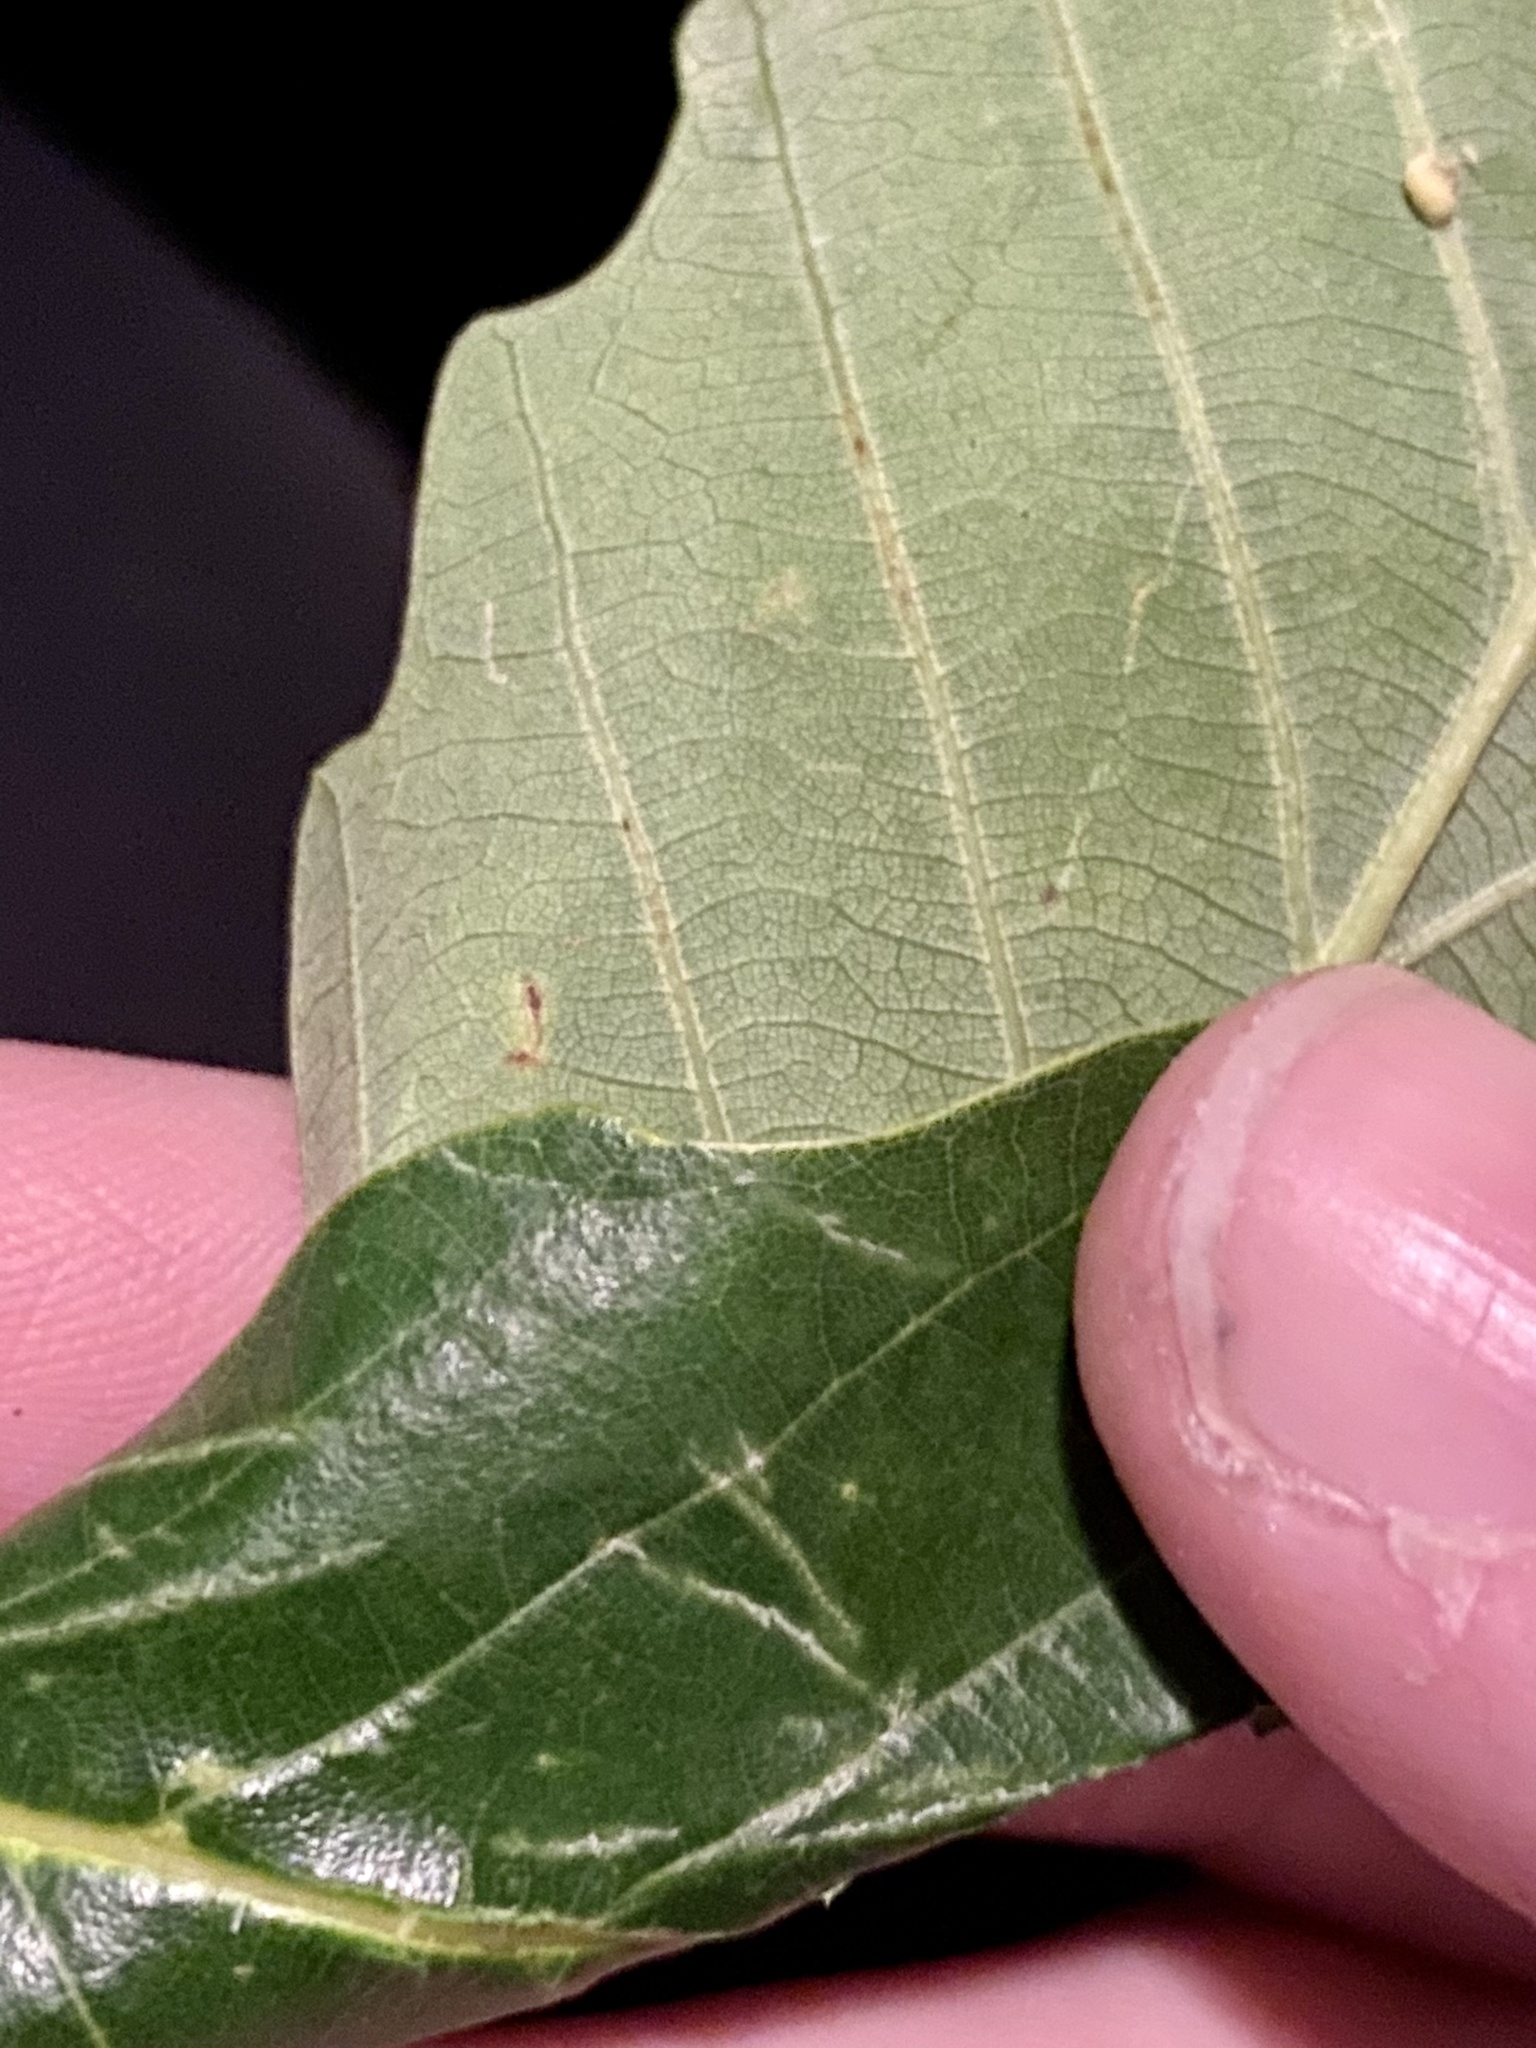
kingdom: Plantae
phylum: Tracheophyta
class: Magnoliopsida
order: Fagales
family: Fagaceae
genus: Quercus
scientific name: Quercus montana
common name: Chestnut oak
